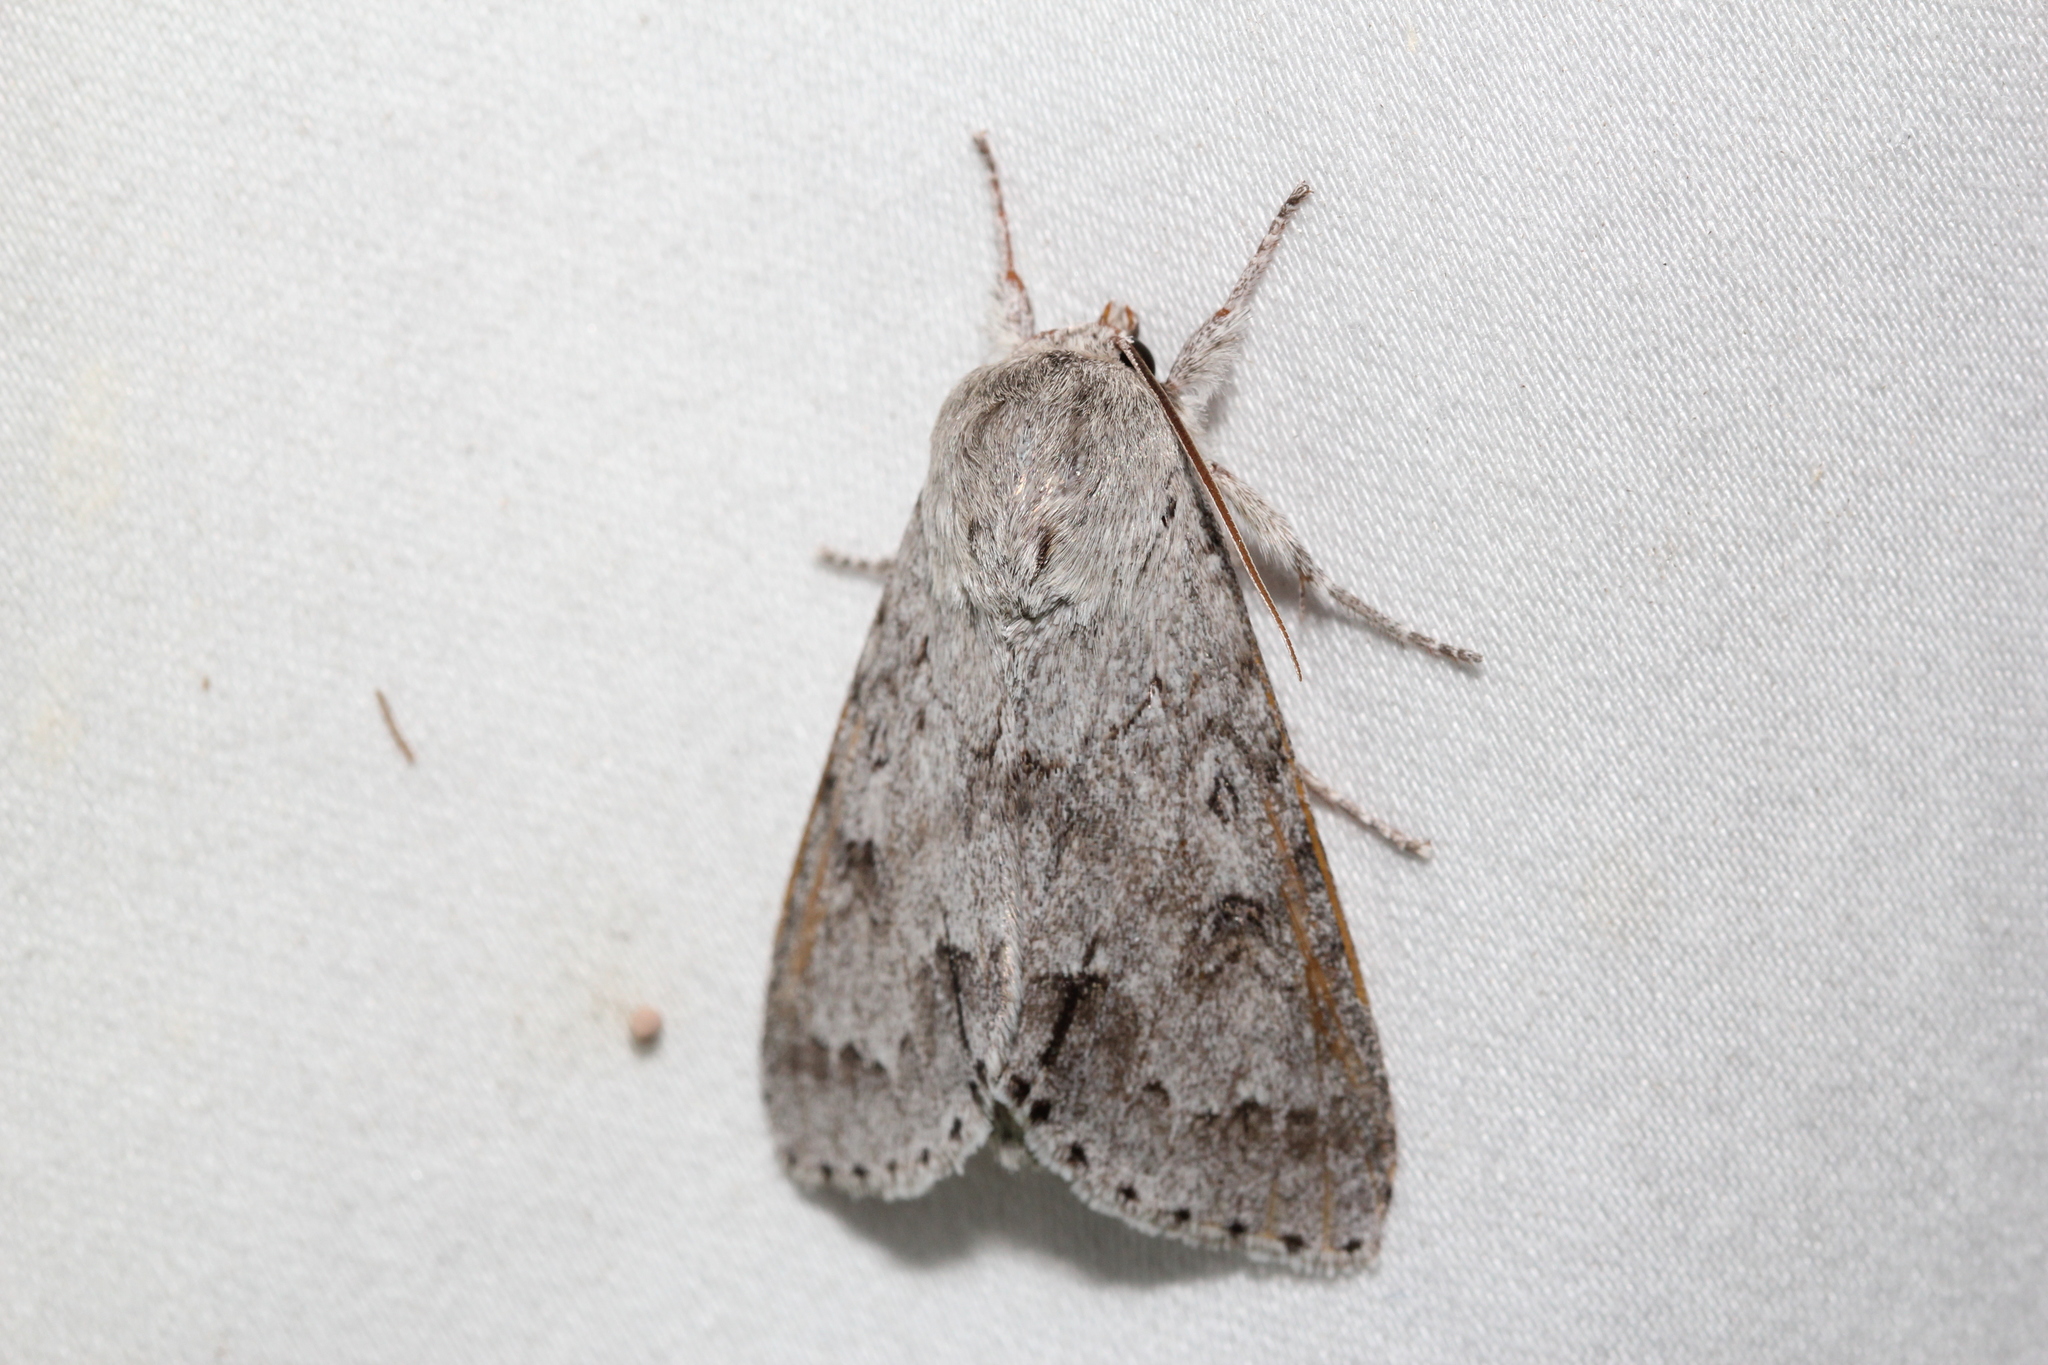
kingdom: Animalia
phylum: Arthropoda
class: Insecta
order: Lepidoptera
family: Noctuidae
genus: Acronicta
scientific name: Acronicta insita
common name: Large gray dagger
